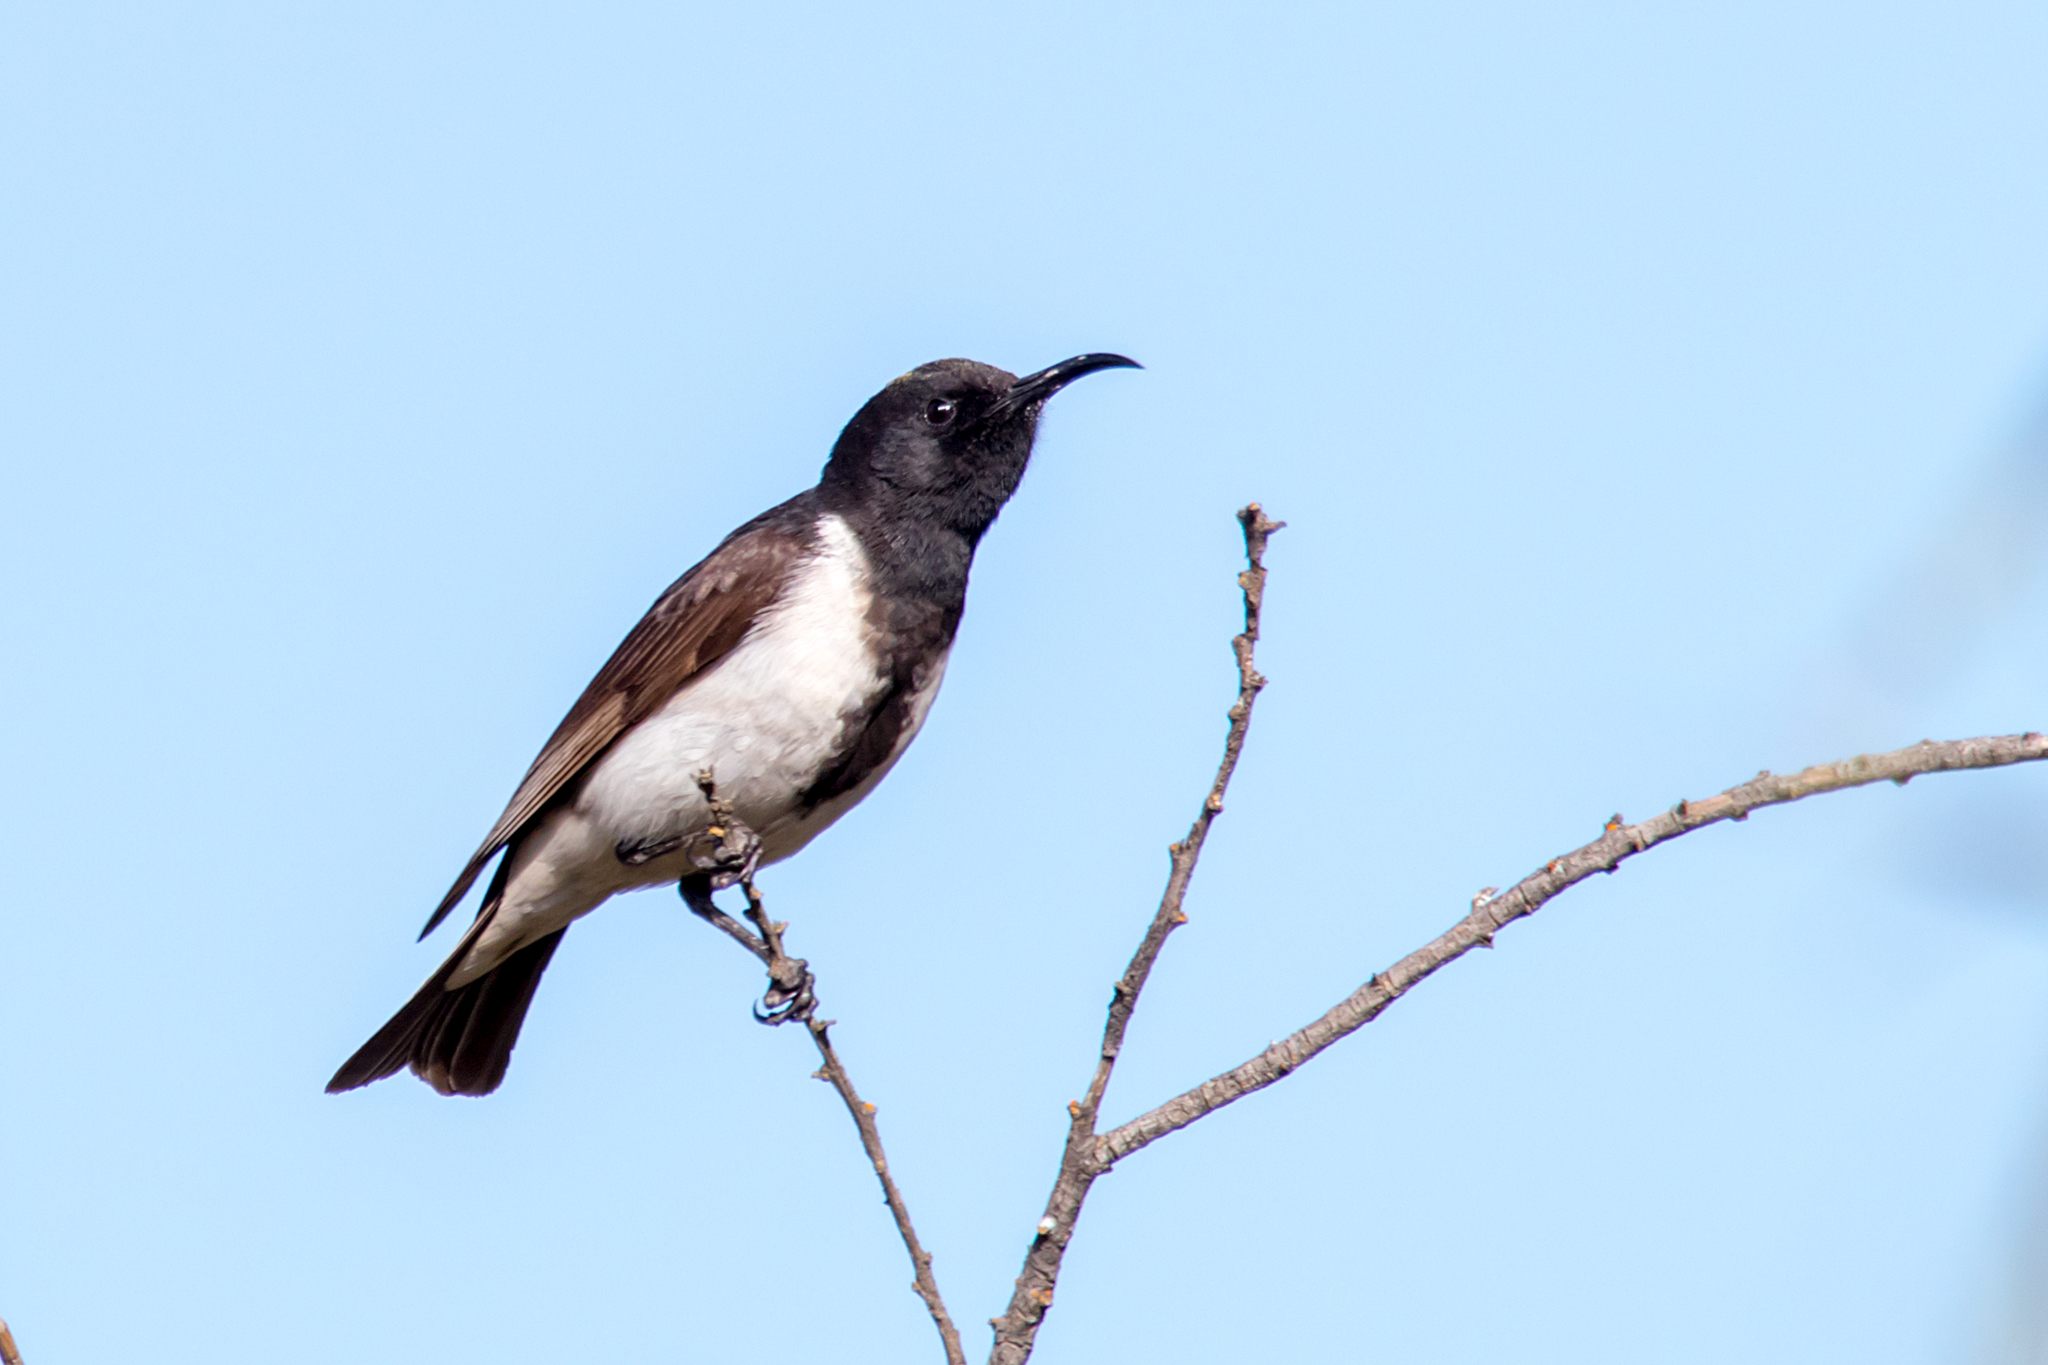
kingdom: Animalia
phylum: Chordata
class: Aves
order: Passeriformes
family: Meliphagidae
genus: Sugomel
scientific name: Sugomel niger
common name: Black honeyeater
